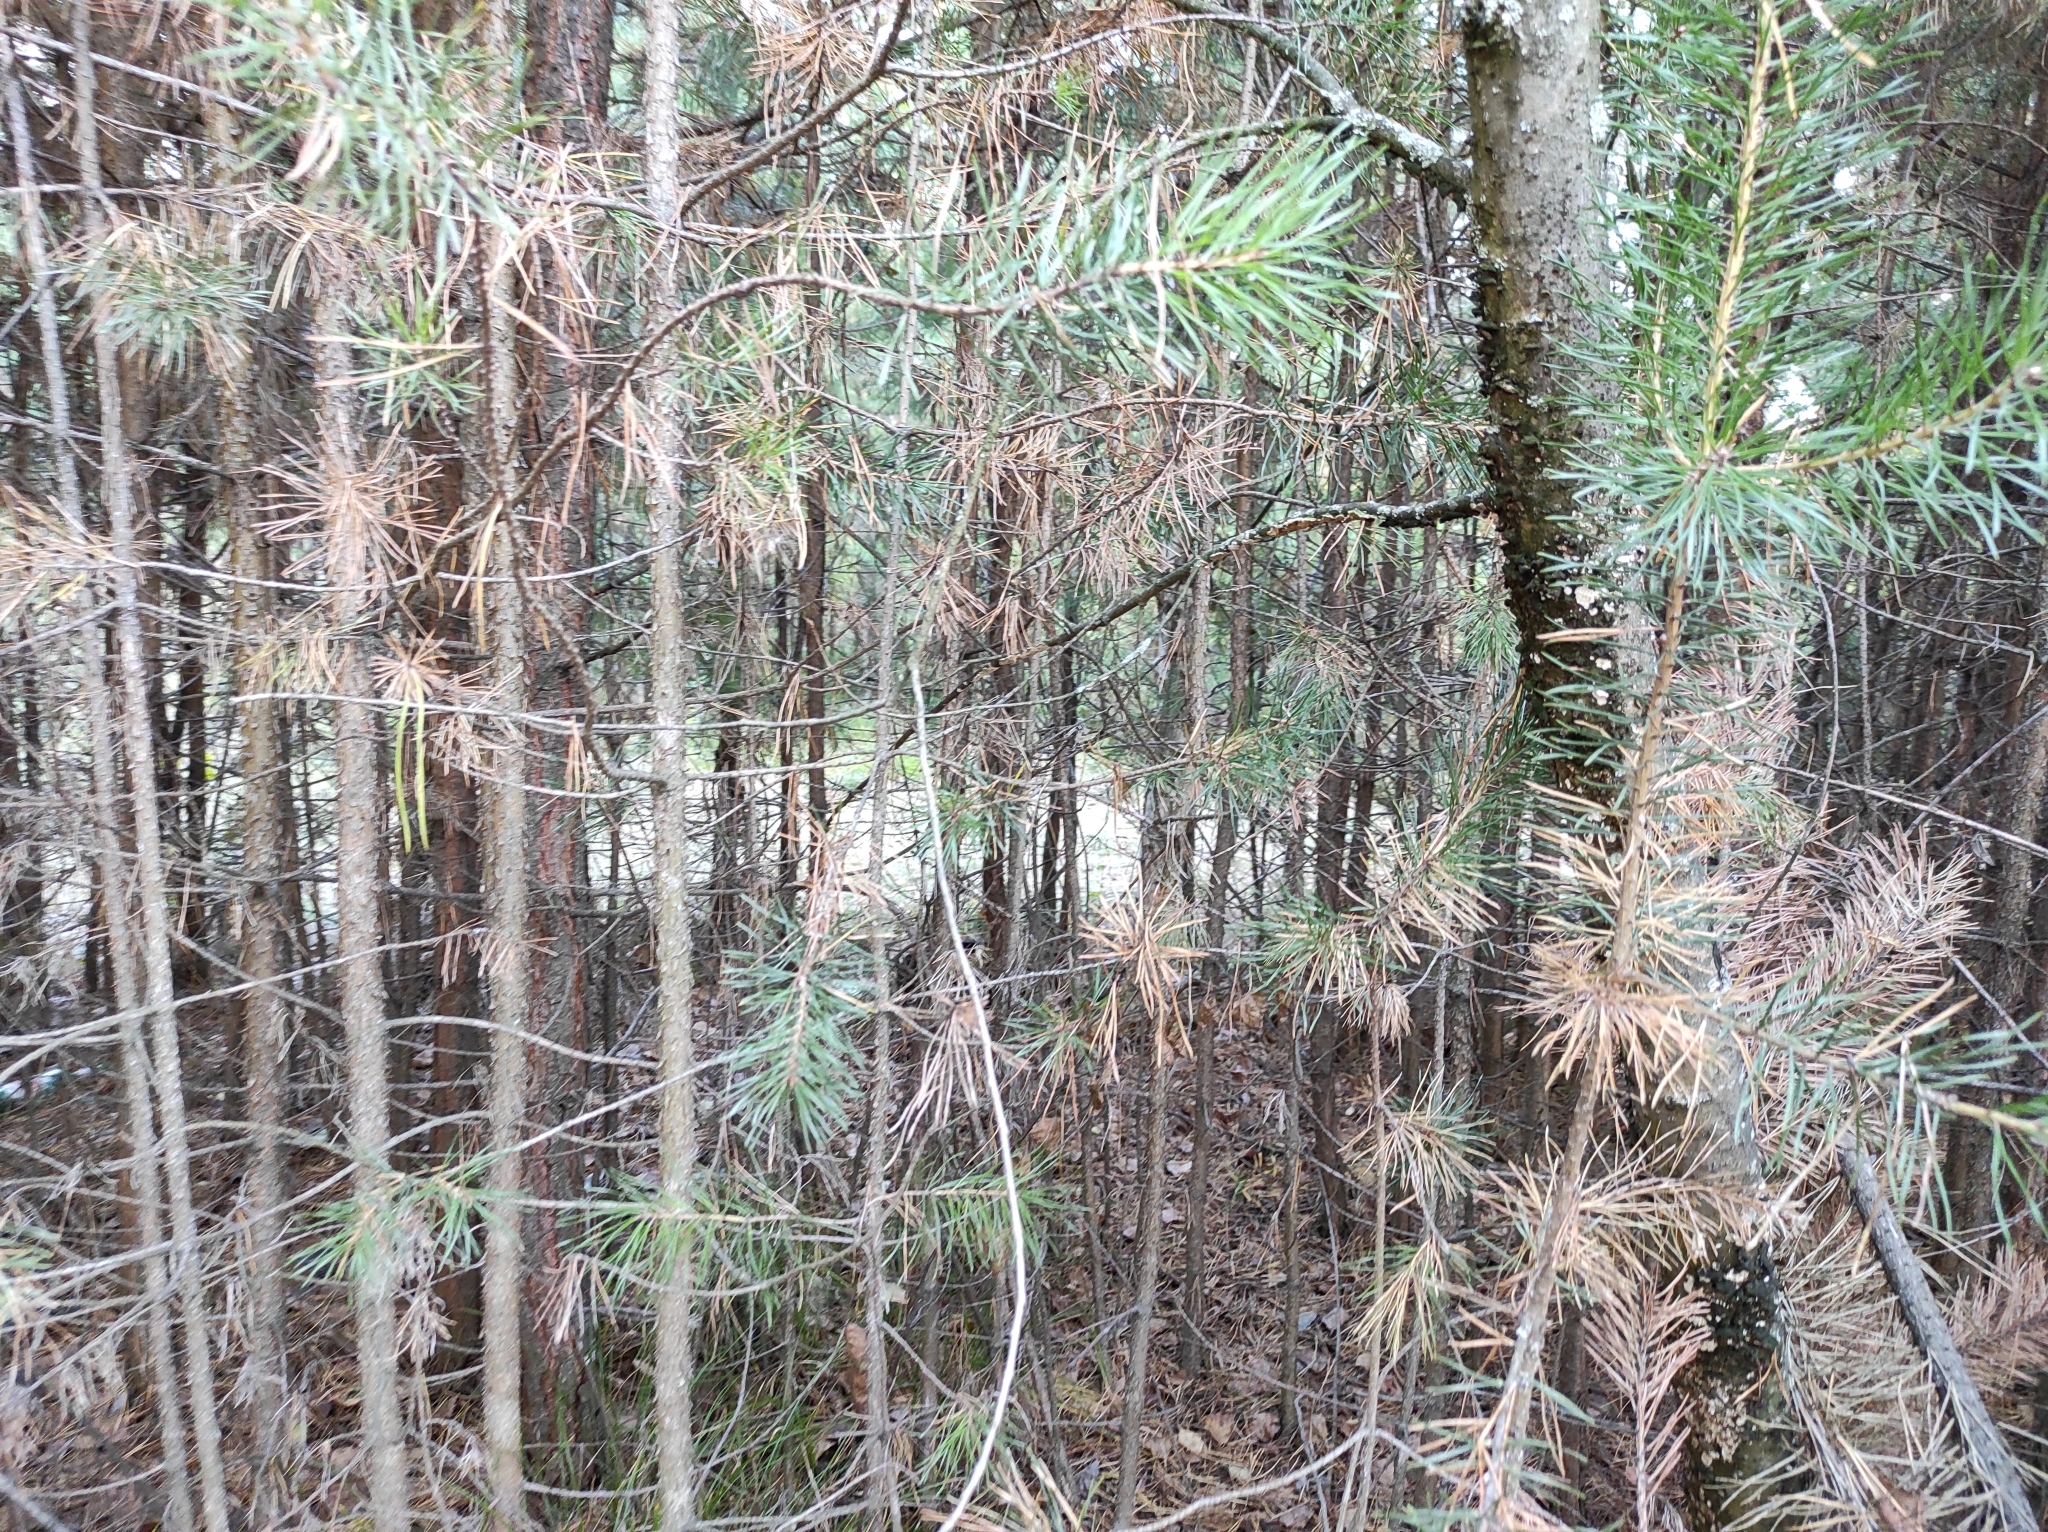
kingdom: Plantae
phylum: Tracheophyta
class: Pinopsida
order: Pinales
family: Pinaceae
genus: Pinus
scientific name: Pinus sylvestris
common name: Scots pine
